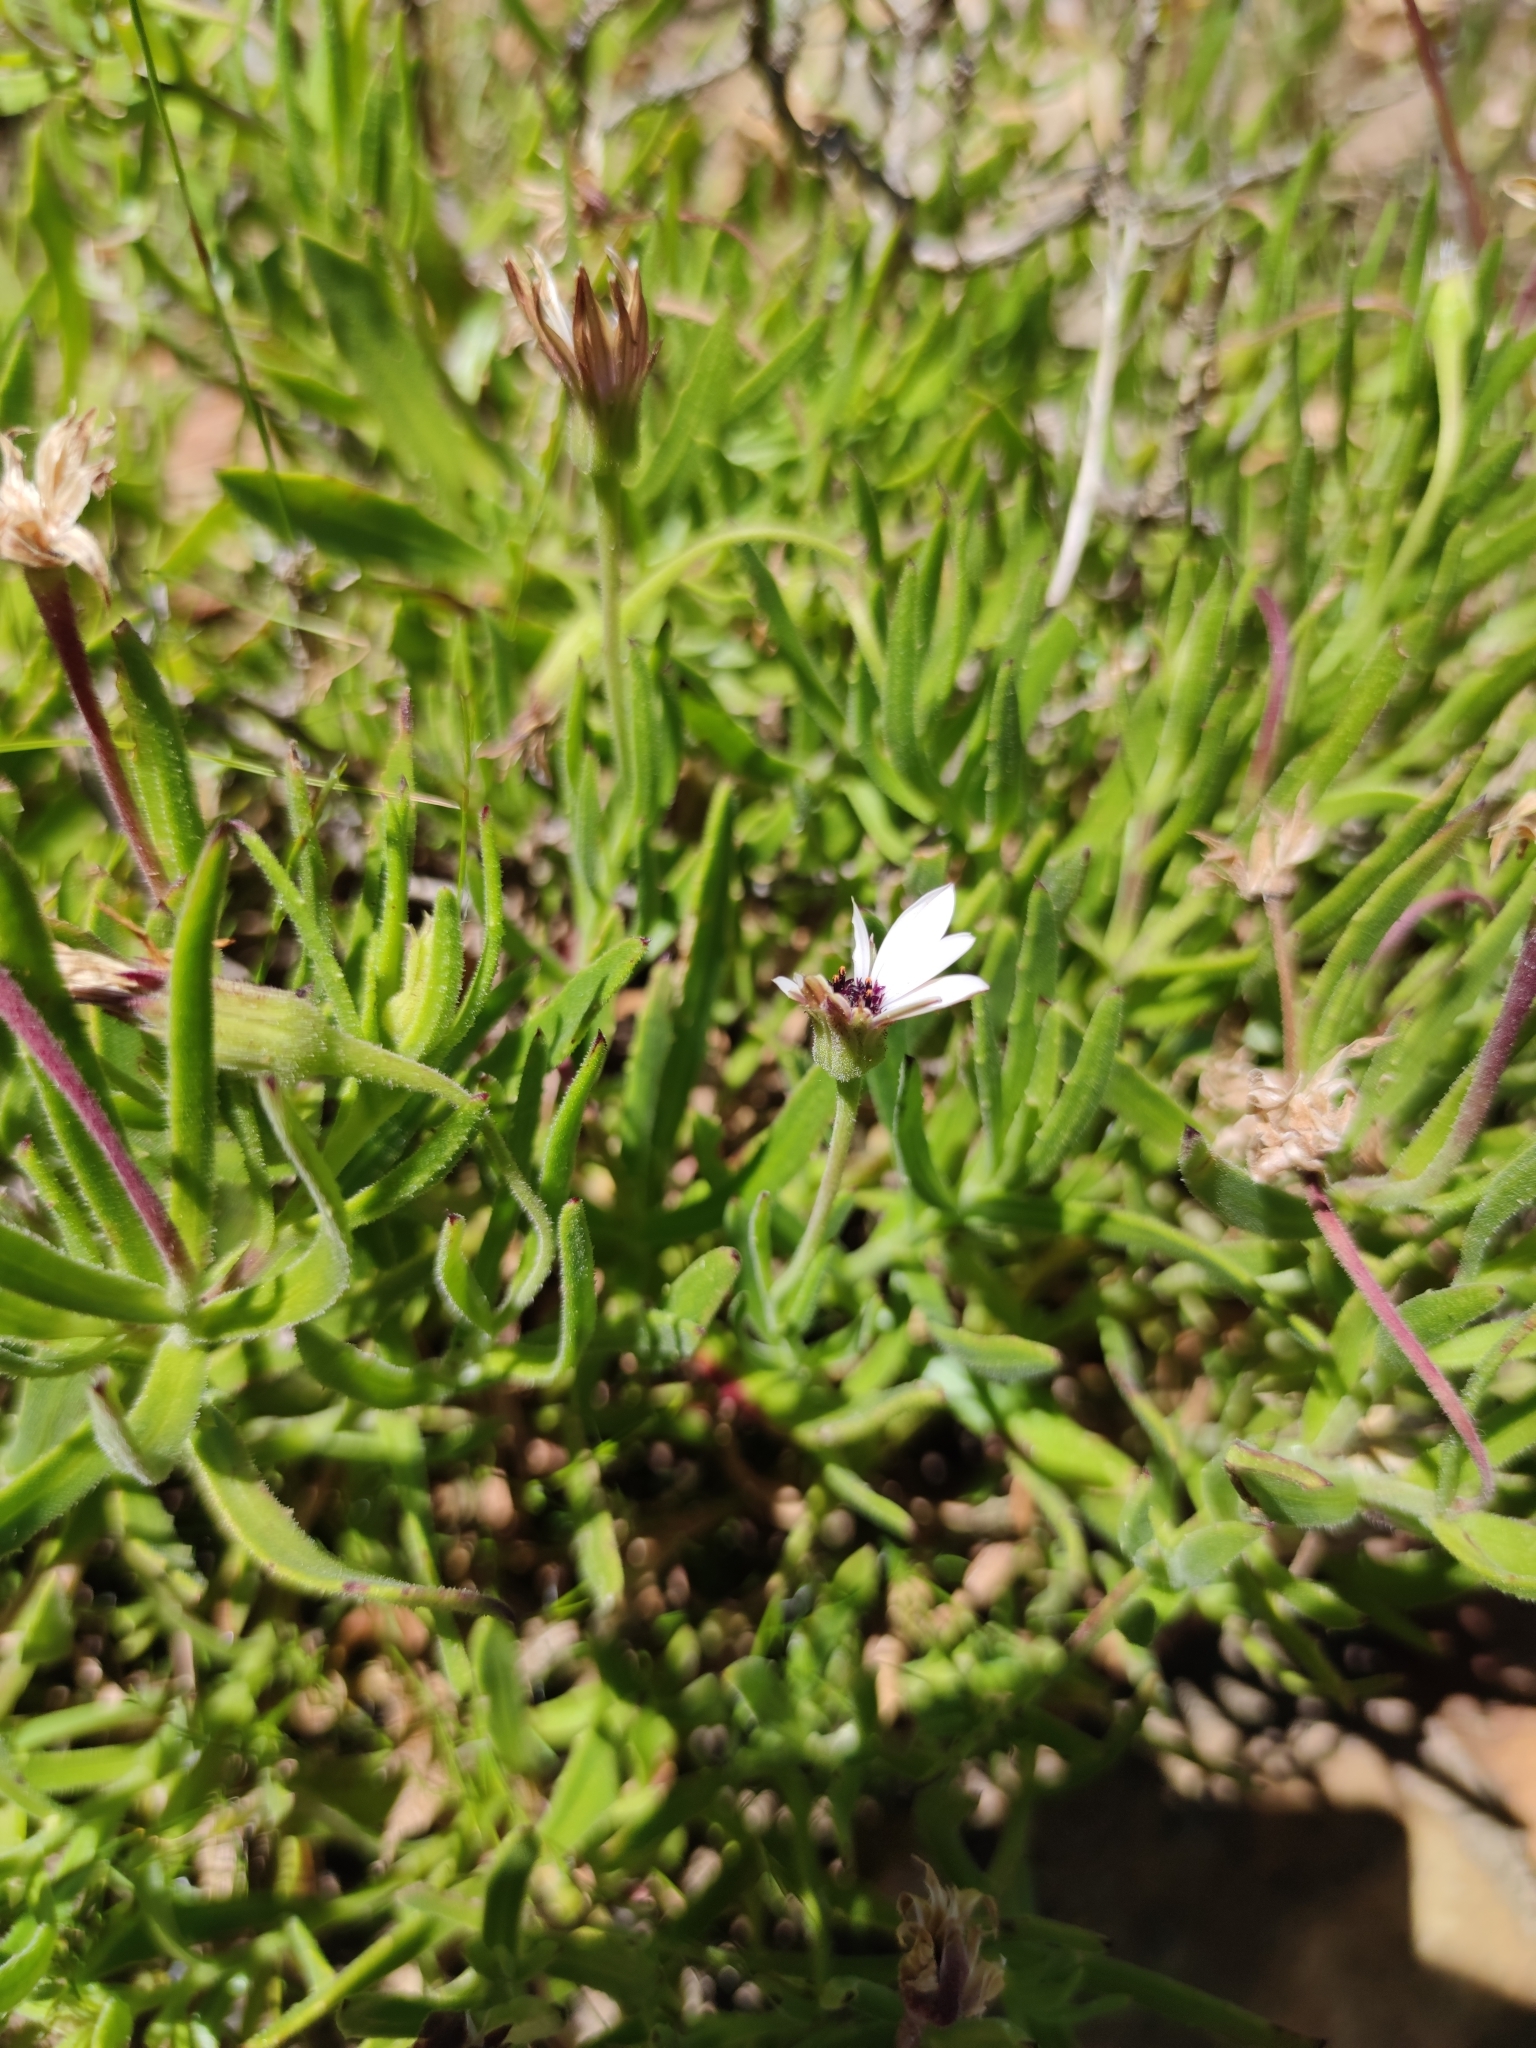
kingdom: Plantae
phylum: Tracheophyta
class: Magnoliopsida
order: Asterales
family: Asteraceae
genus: Dimorphotheca
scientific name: Dimorphotheca acutifolia
